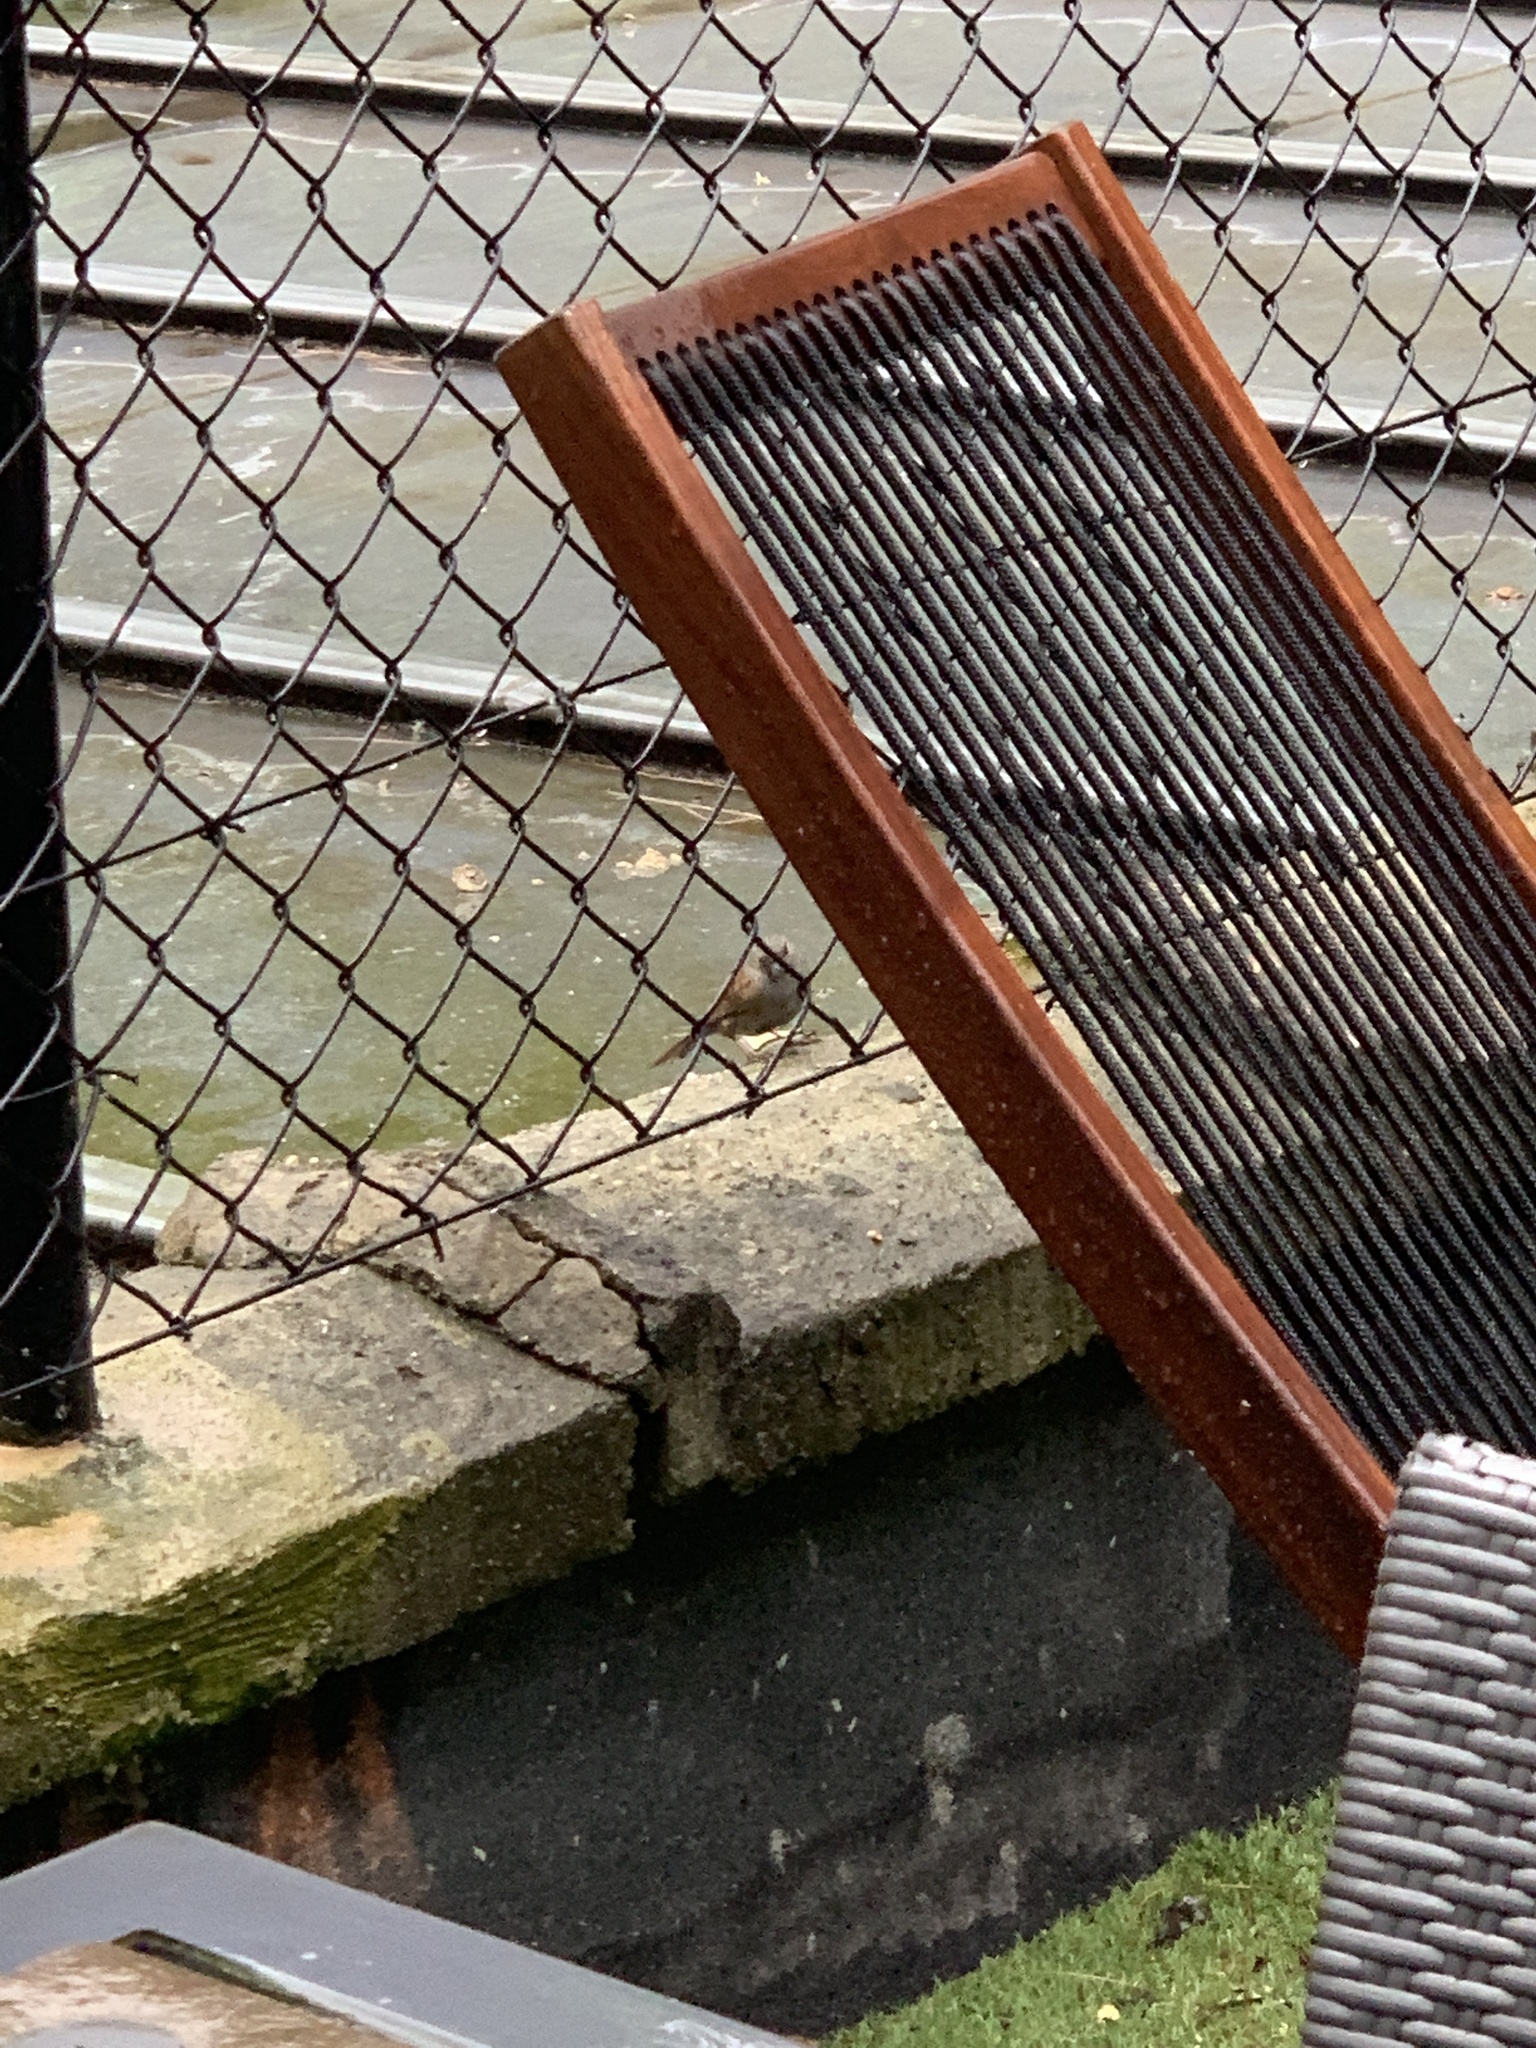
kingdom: Animalia
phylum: Chordata
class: Aves
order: Passeriformes
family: Prunellidae
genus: Prunella
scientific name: Prunella modularis
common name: Dunnock
